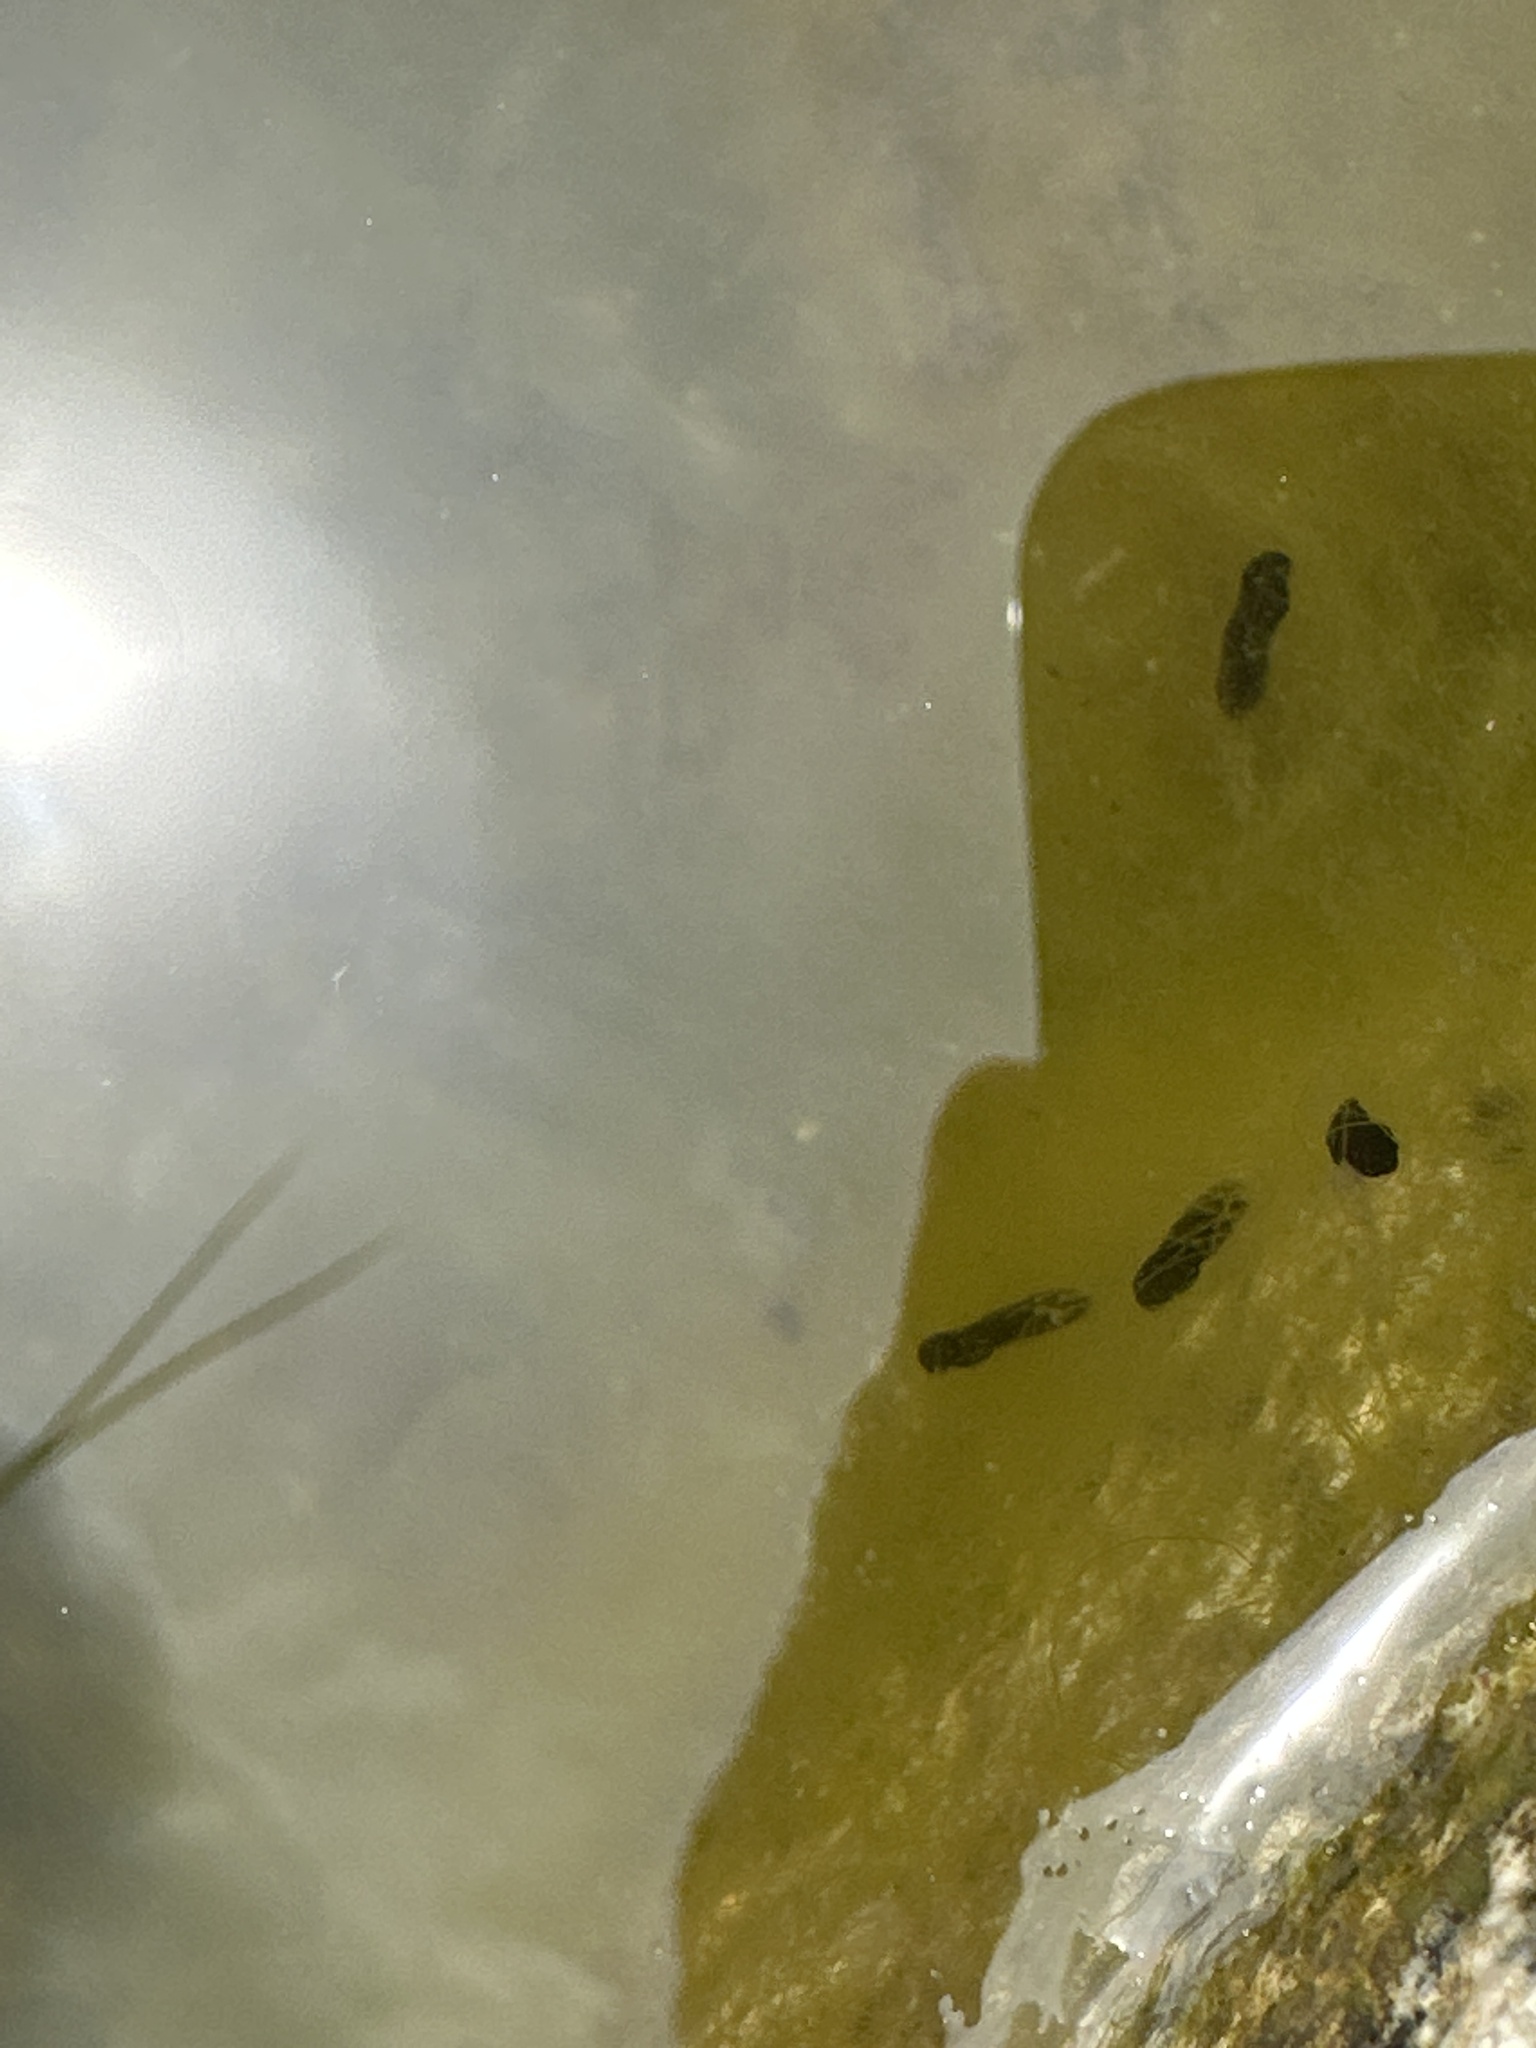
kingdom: Animalia
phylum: Chordata
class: Amphibia
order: Anura
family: Bufonidae
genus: Bufo
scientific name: Bufo bufo
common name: Common toad
